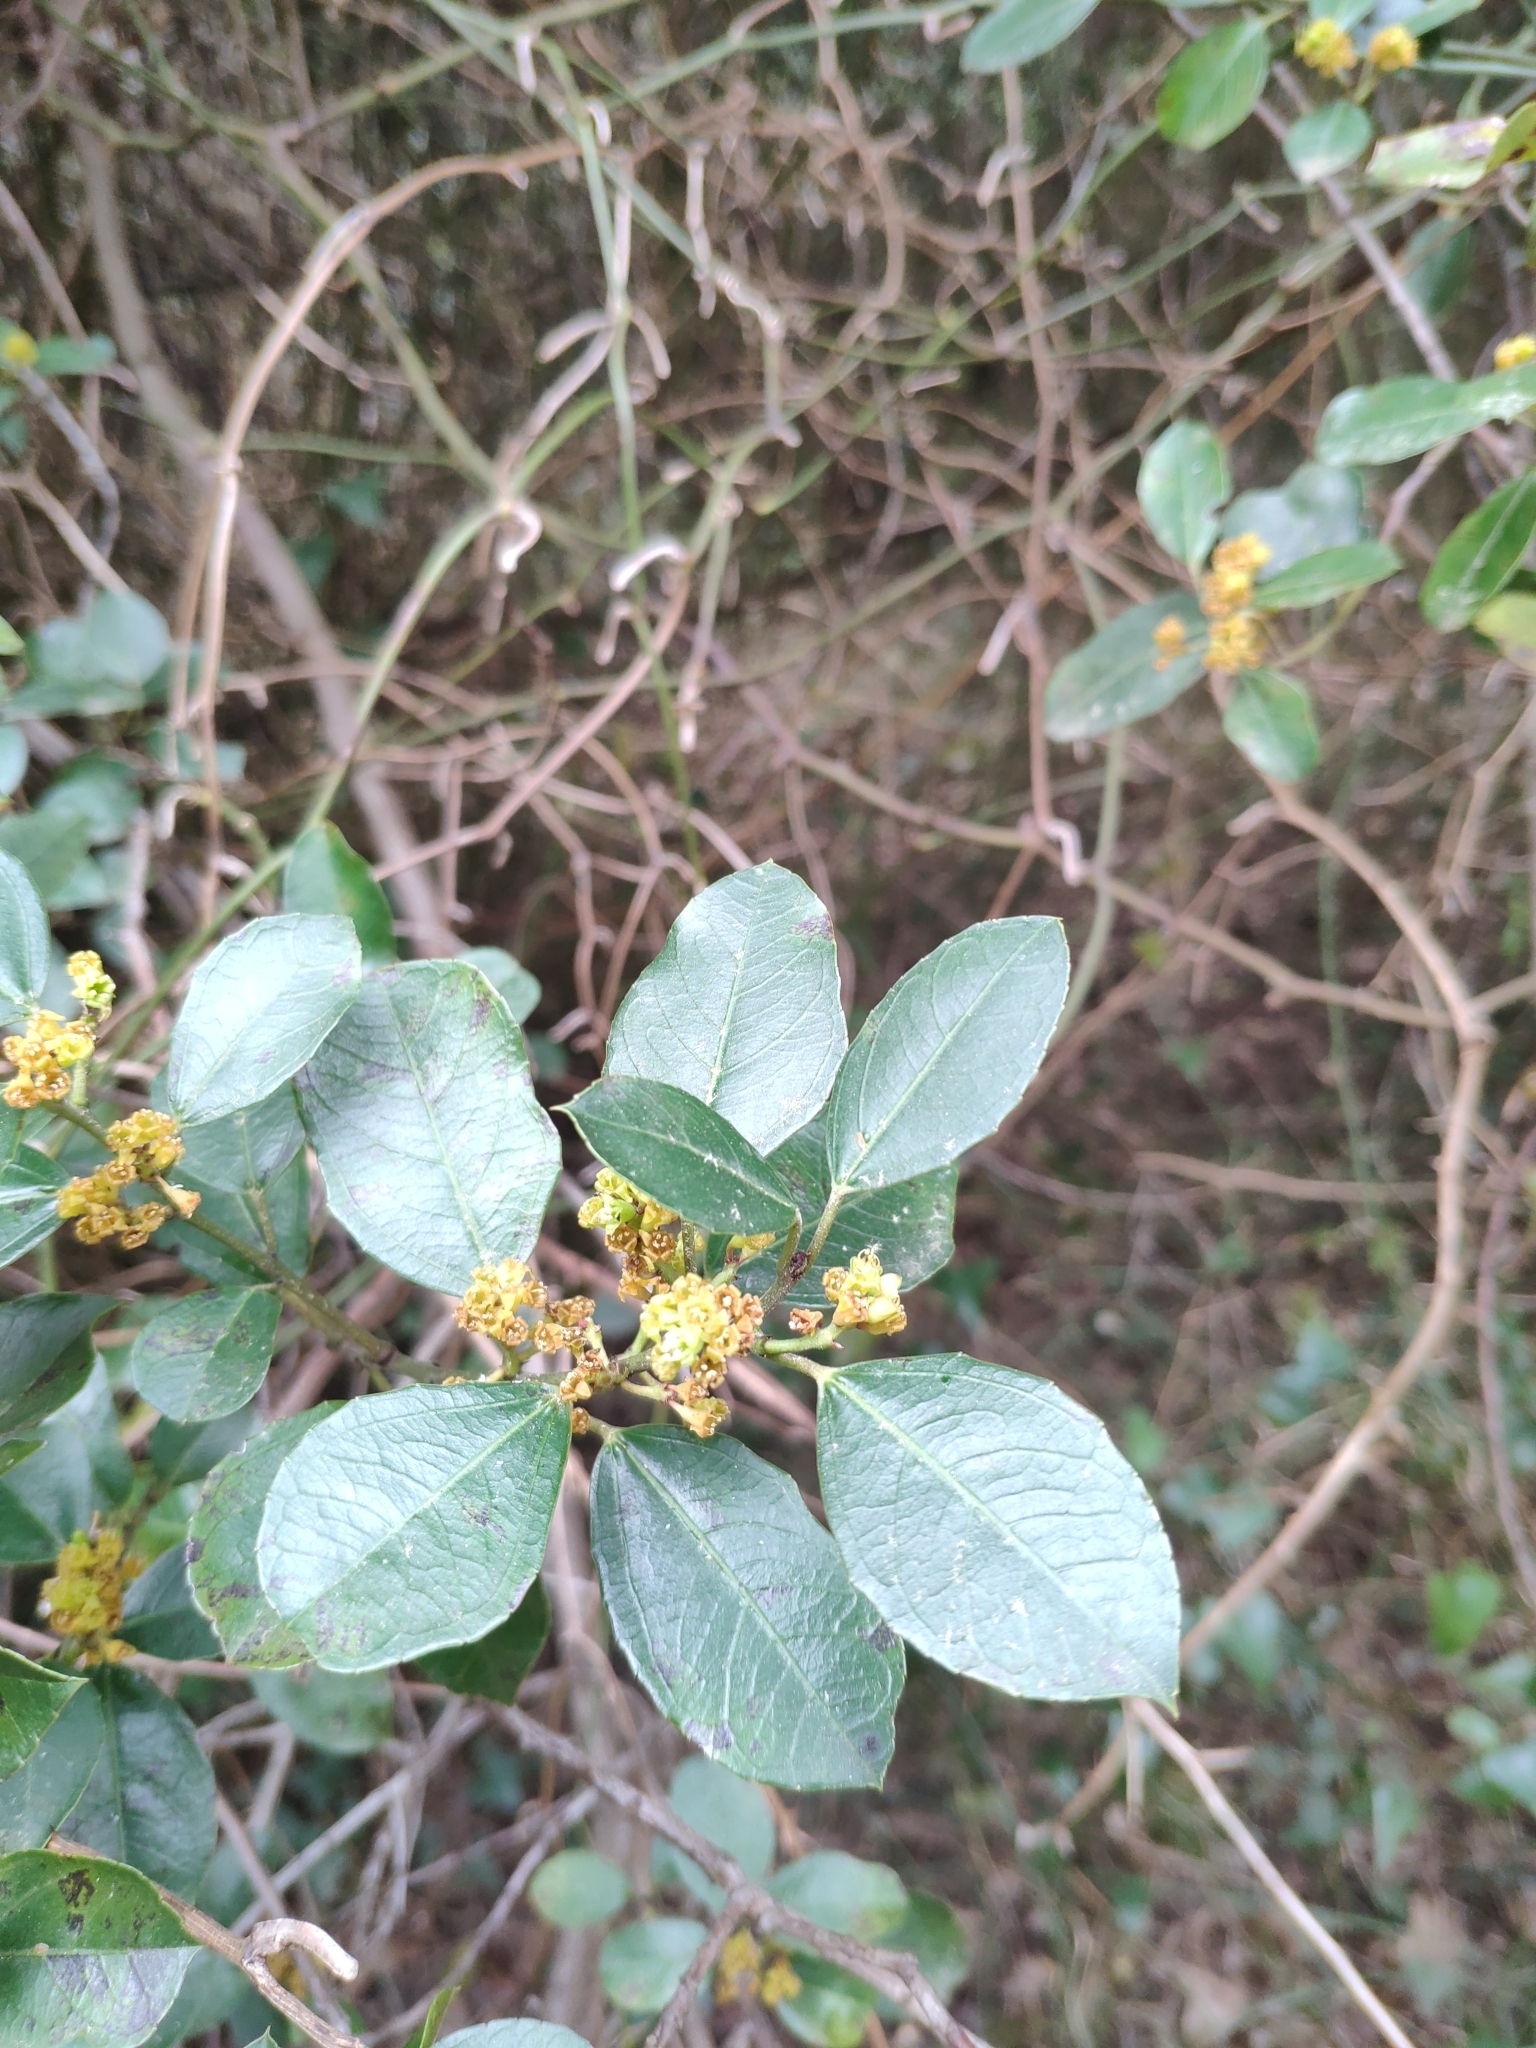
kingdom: Plantae
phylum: Tracheophyta
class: Magnoliopsida
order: Rosales
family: Rhamnaceae
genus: Rhamnus
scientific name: Rhamnus alaternus
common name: Mediterranean buckthorn
